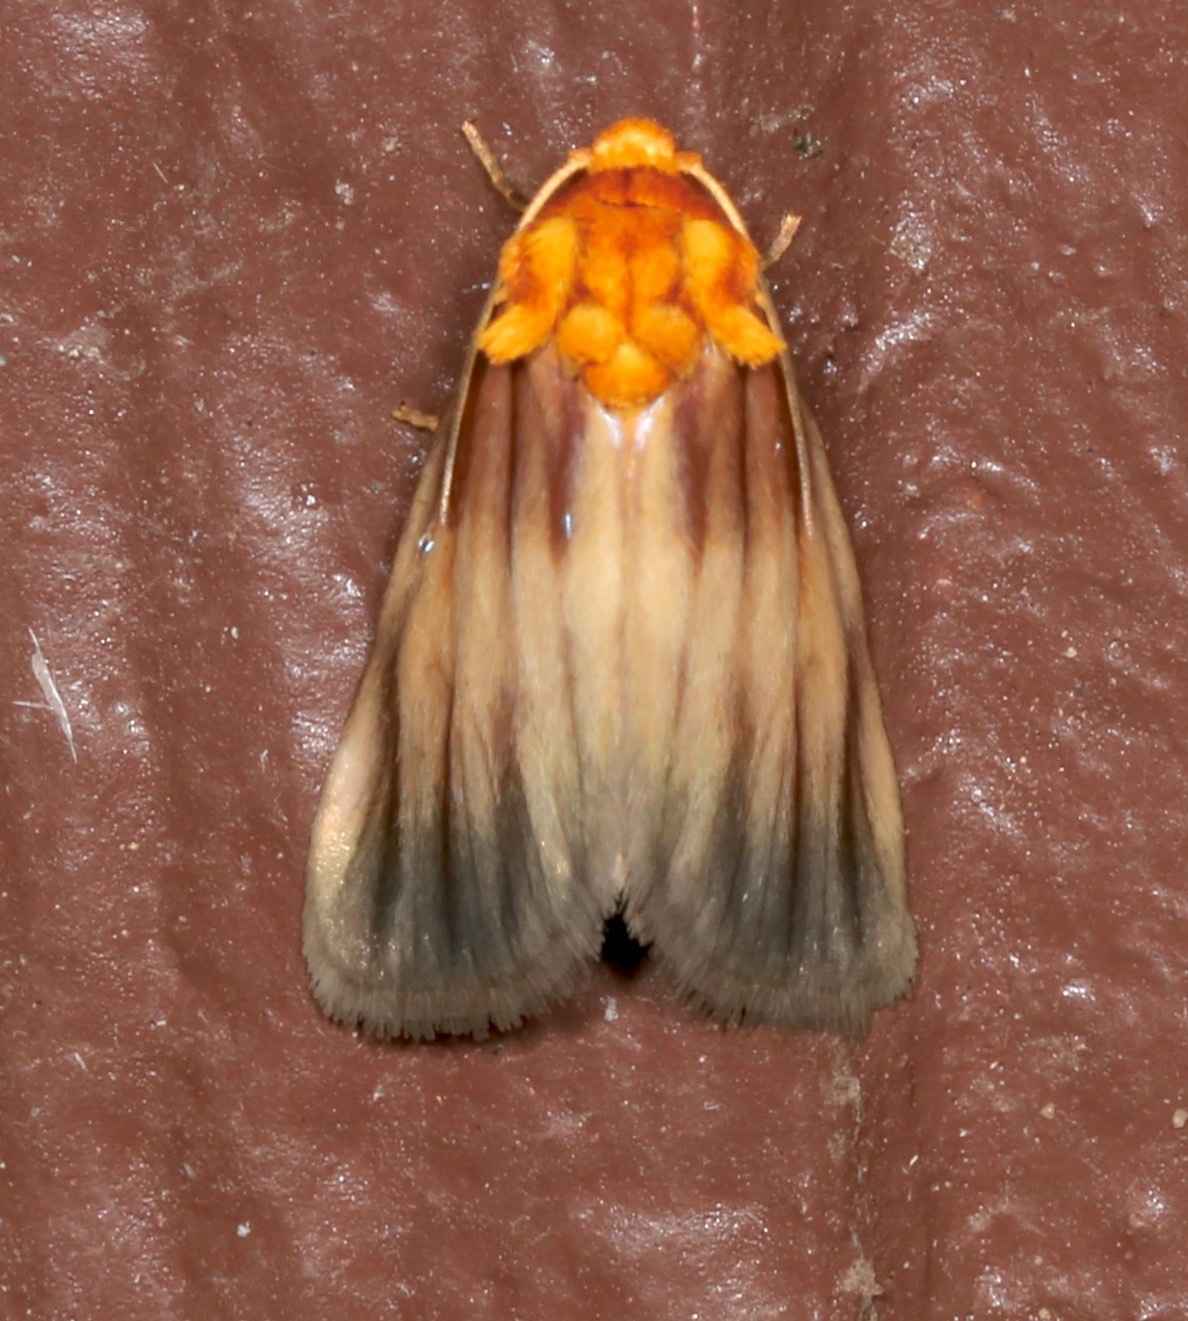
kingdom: Animalia
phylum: Arthropoda
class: Insecta
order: Lepidoptera
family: Noctuidae
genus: Antaplaga
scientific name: Antaplaga plesioglauca
